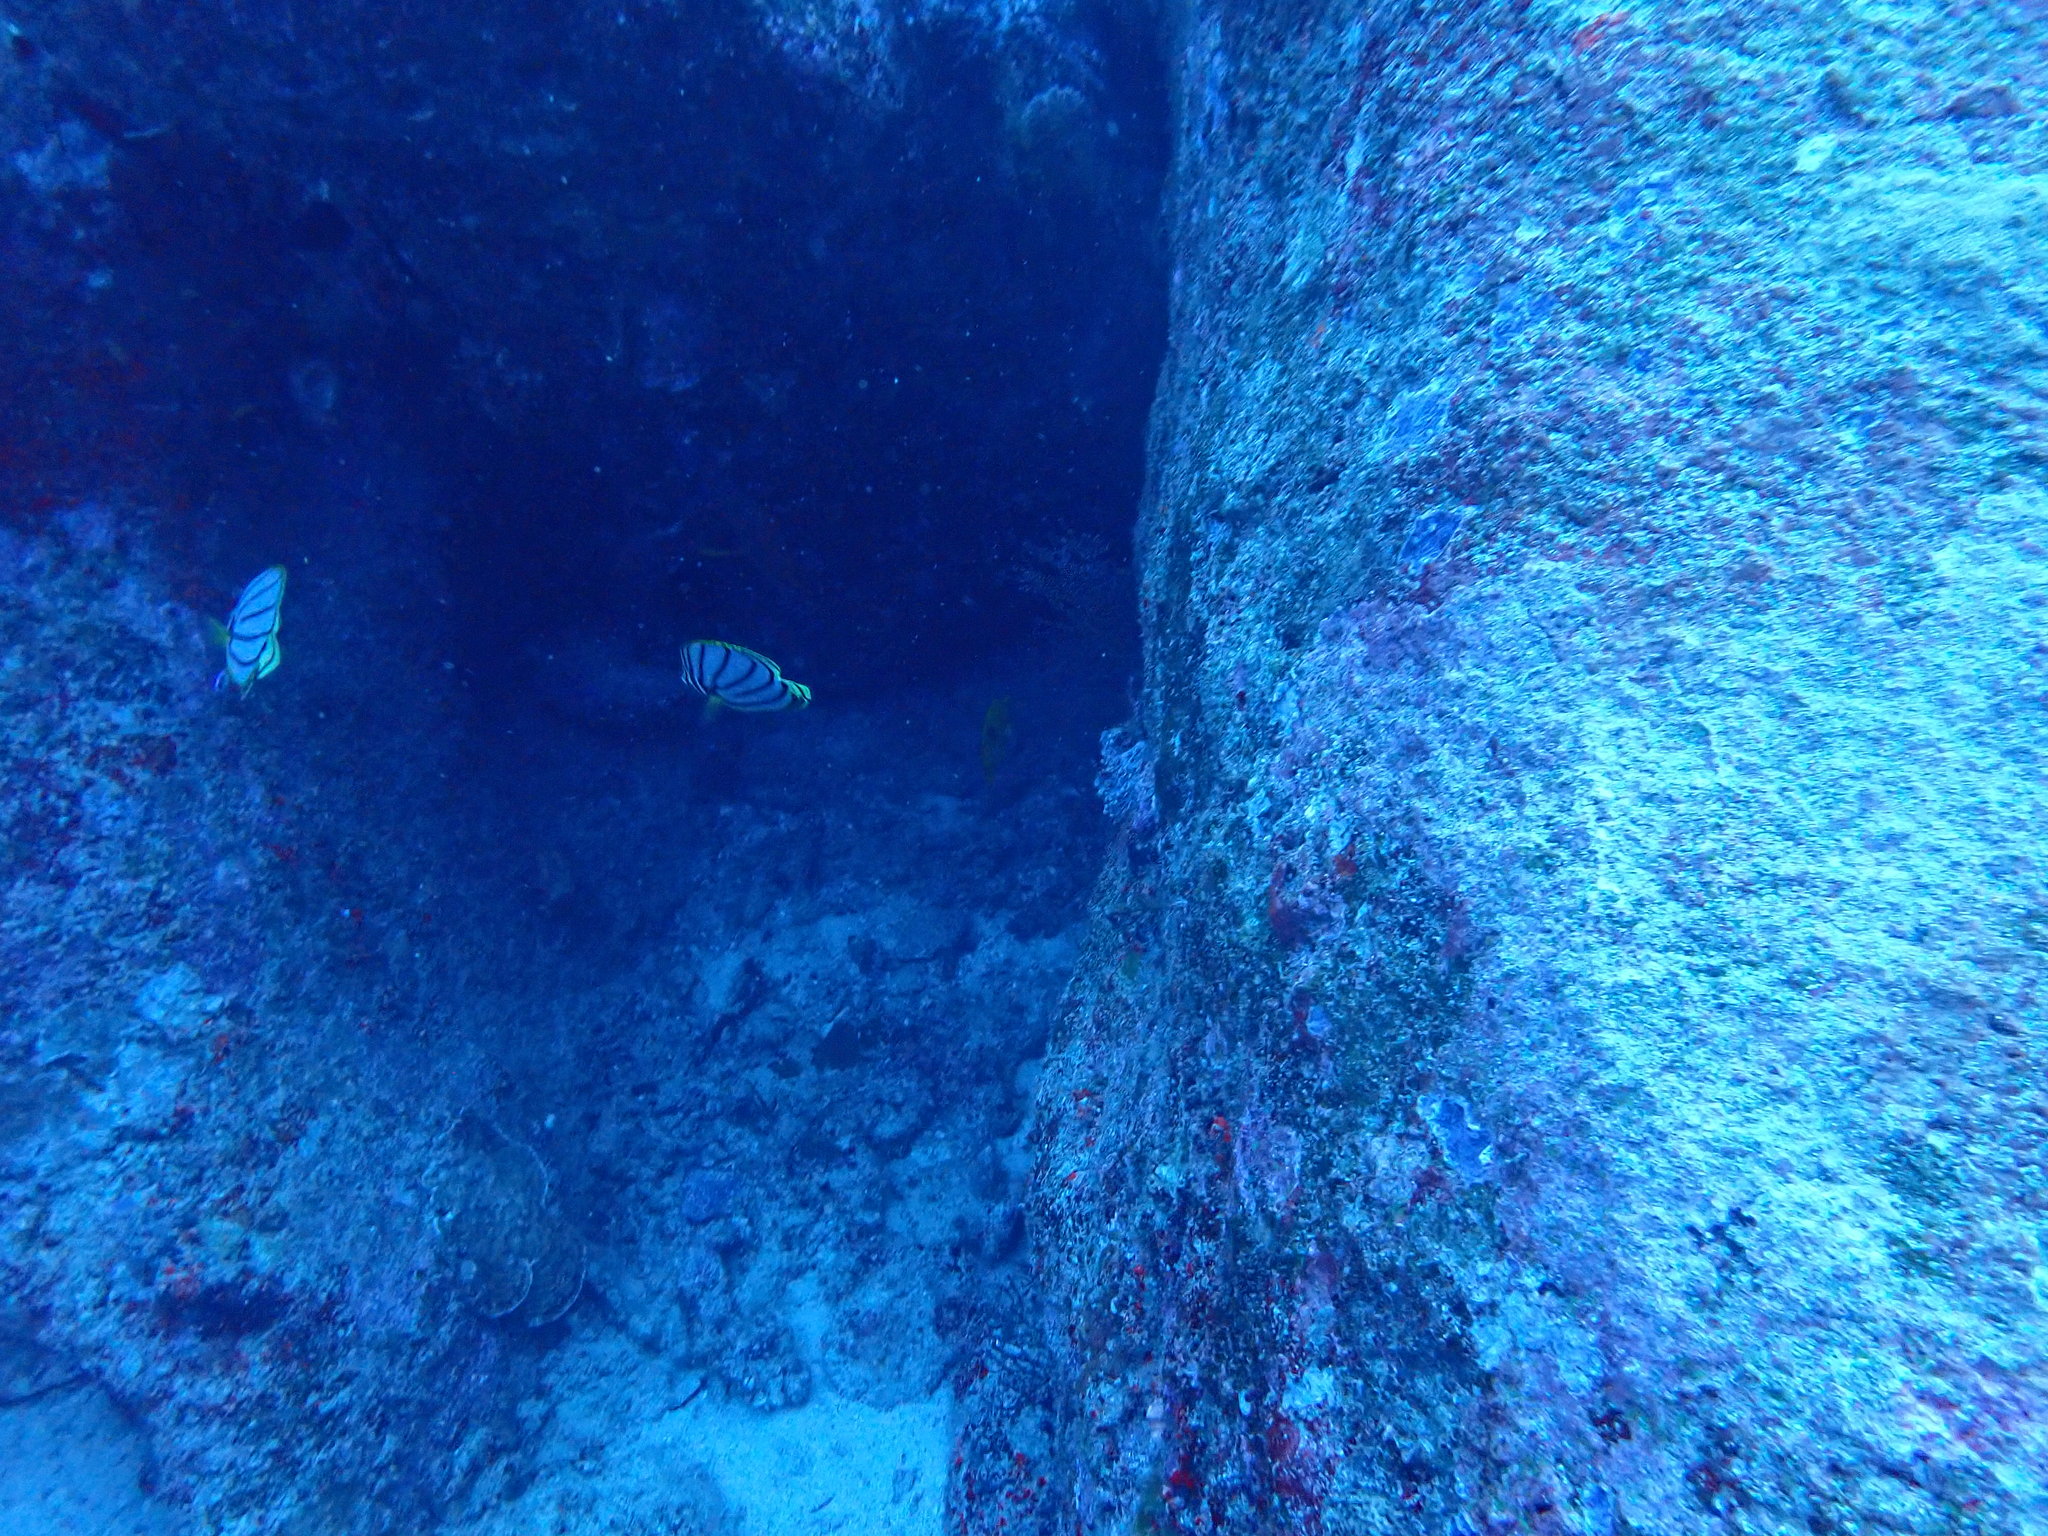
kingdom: Animalia
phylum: Chordata
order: Perciformes
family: Chaetodontidae
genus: Chaetodon
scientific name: Chaetodon meyeri
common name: Meyer's butterflyfish
